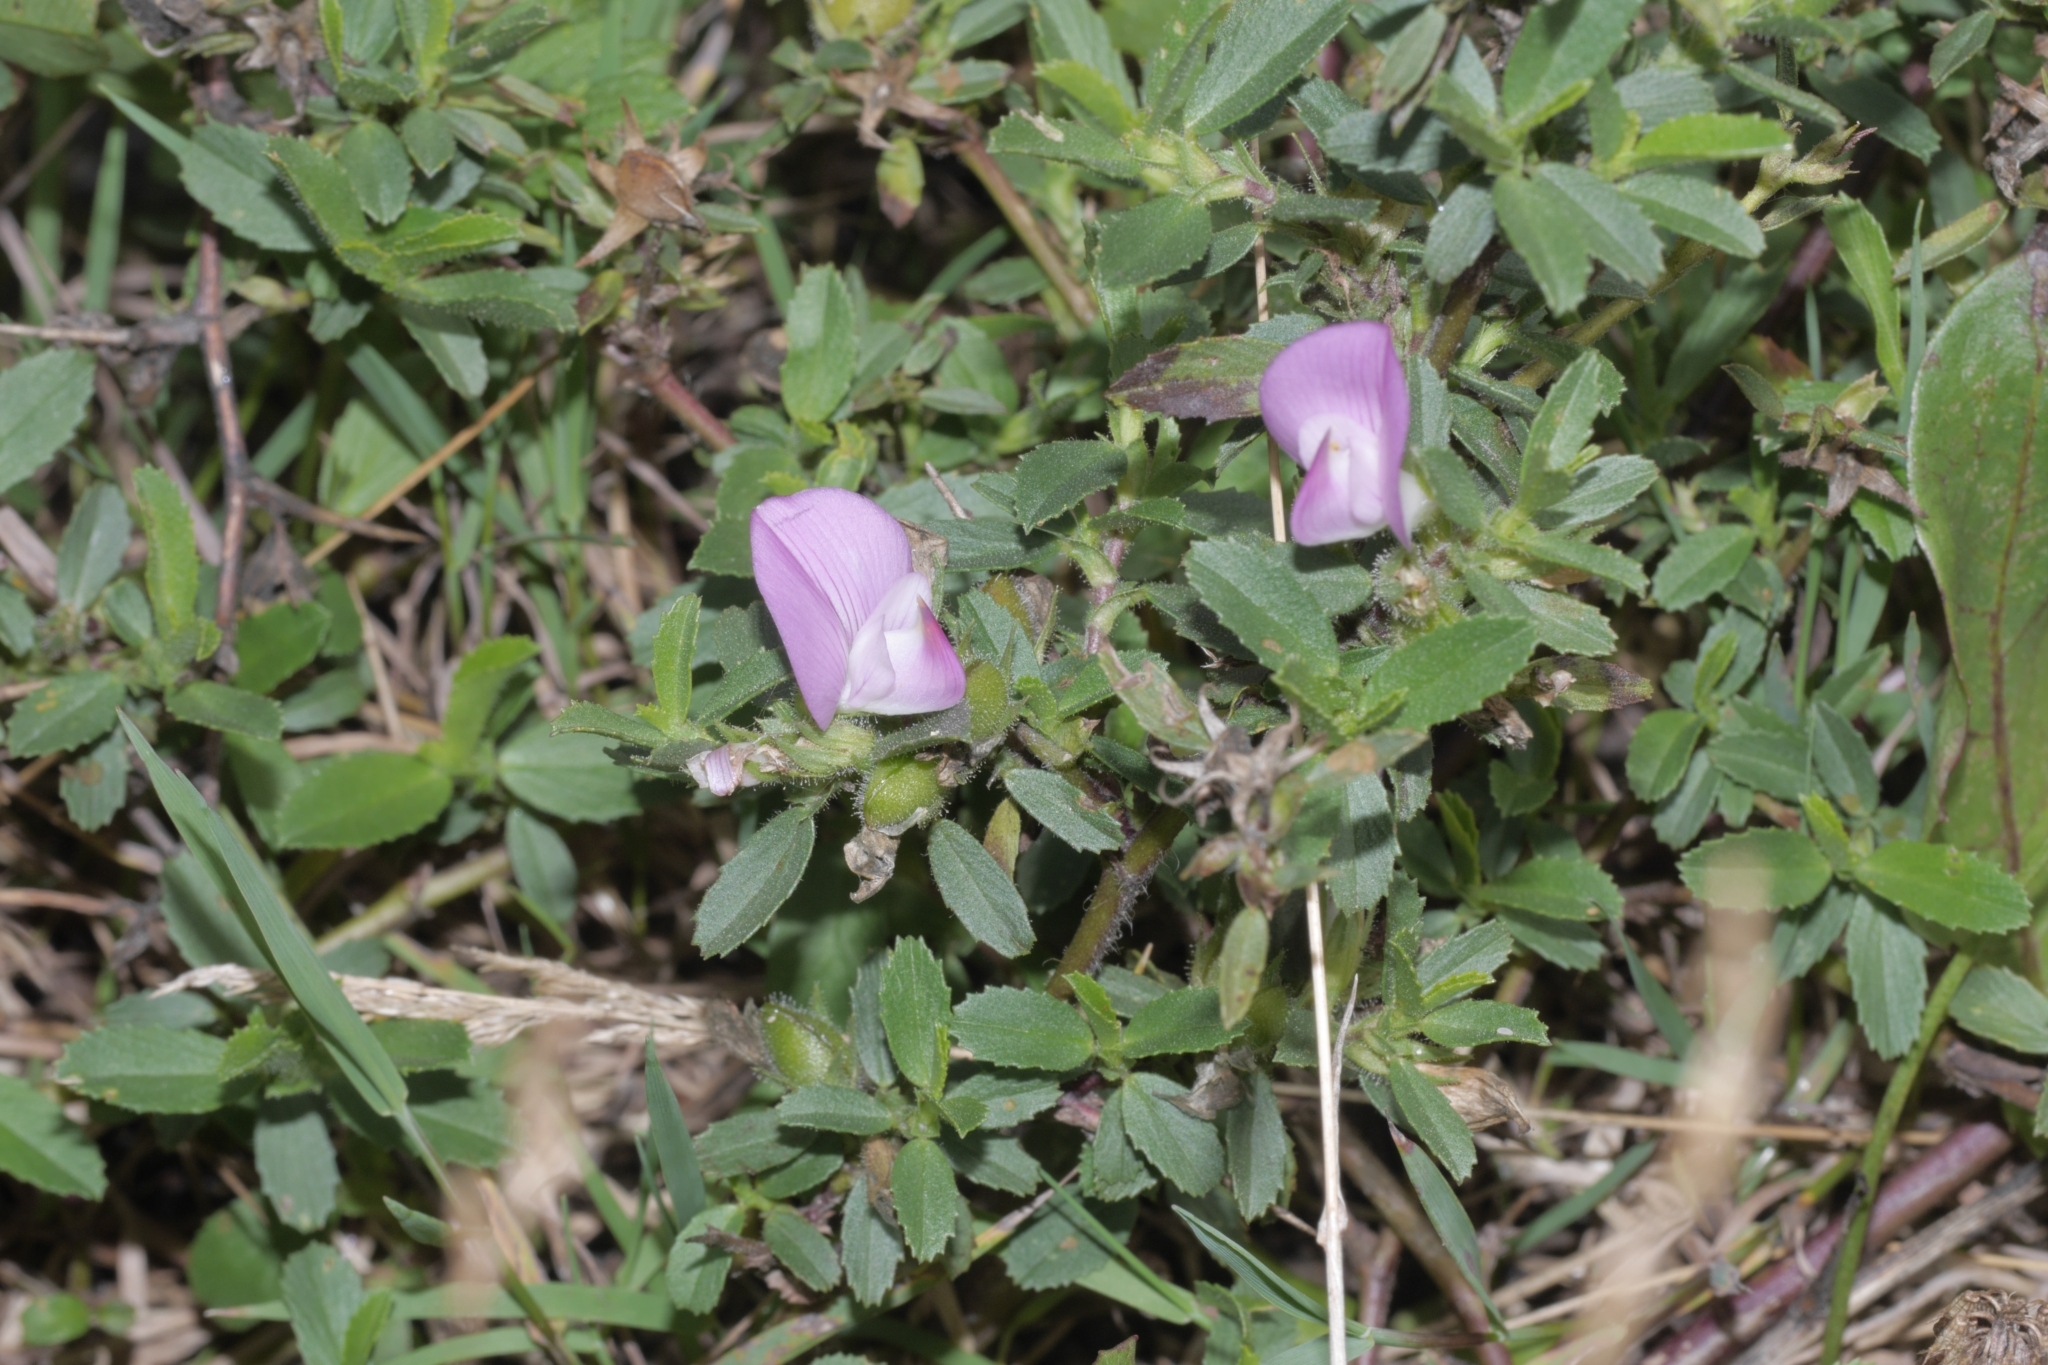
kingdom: Plantae
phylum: Tracheophyta
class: Magnoliopsida
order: Fabales
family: Fabaceae
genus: Ononis
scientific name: Ononis spinosa
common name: Spiny restharrow
